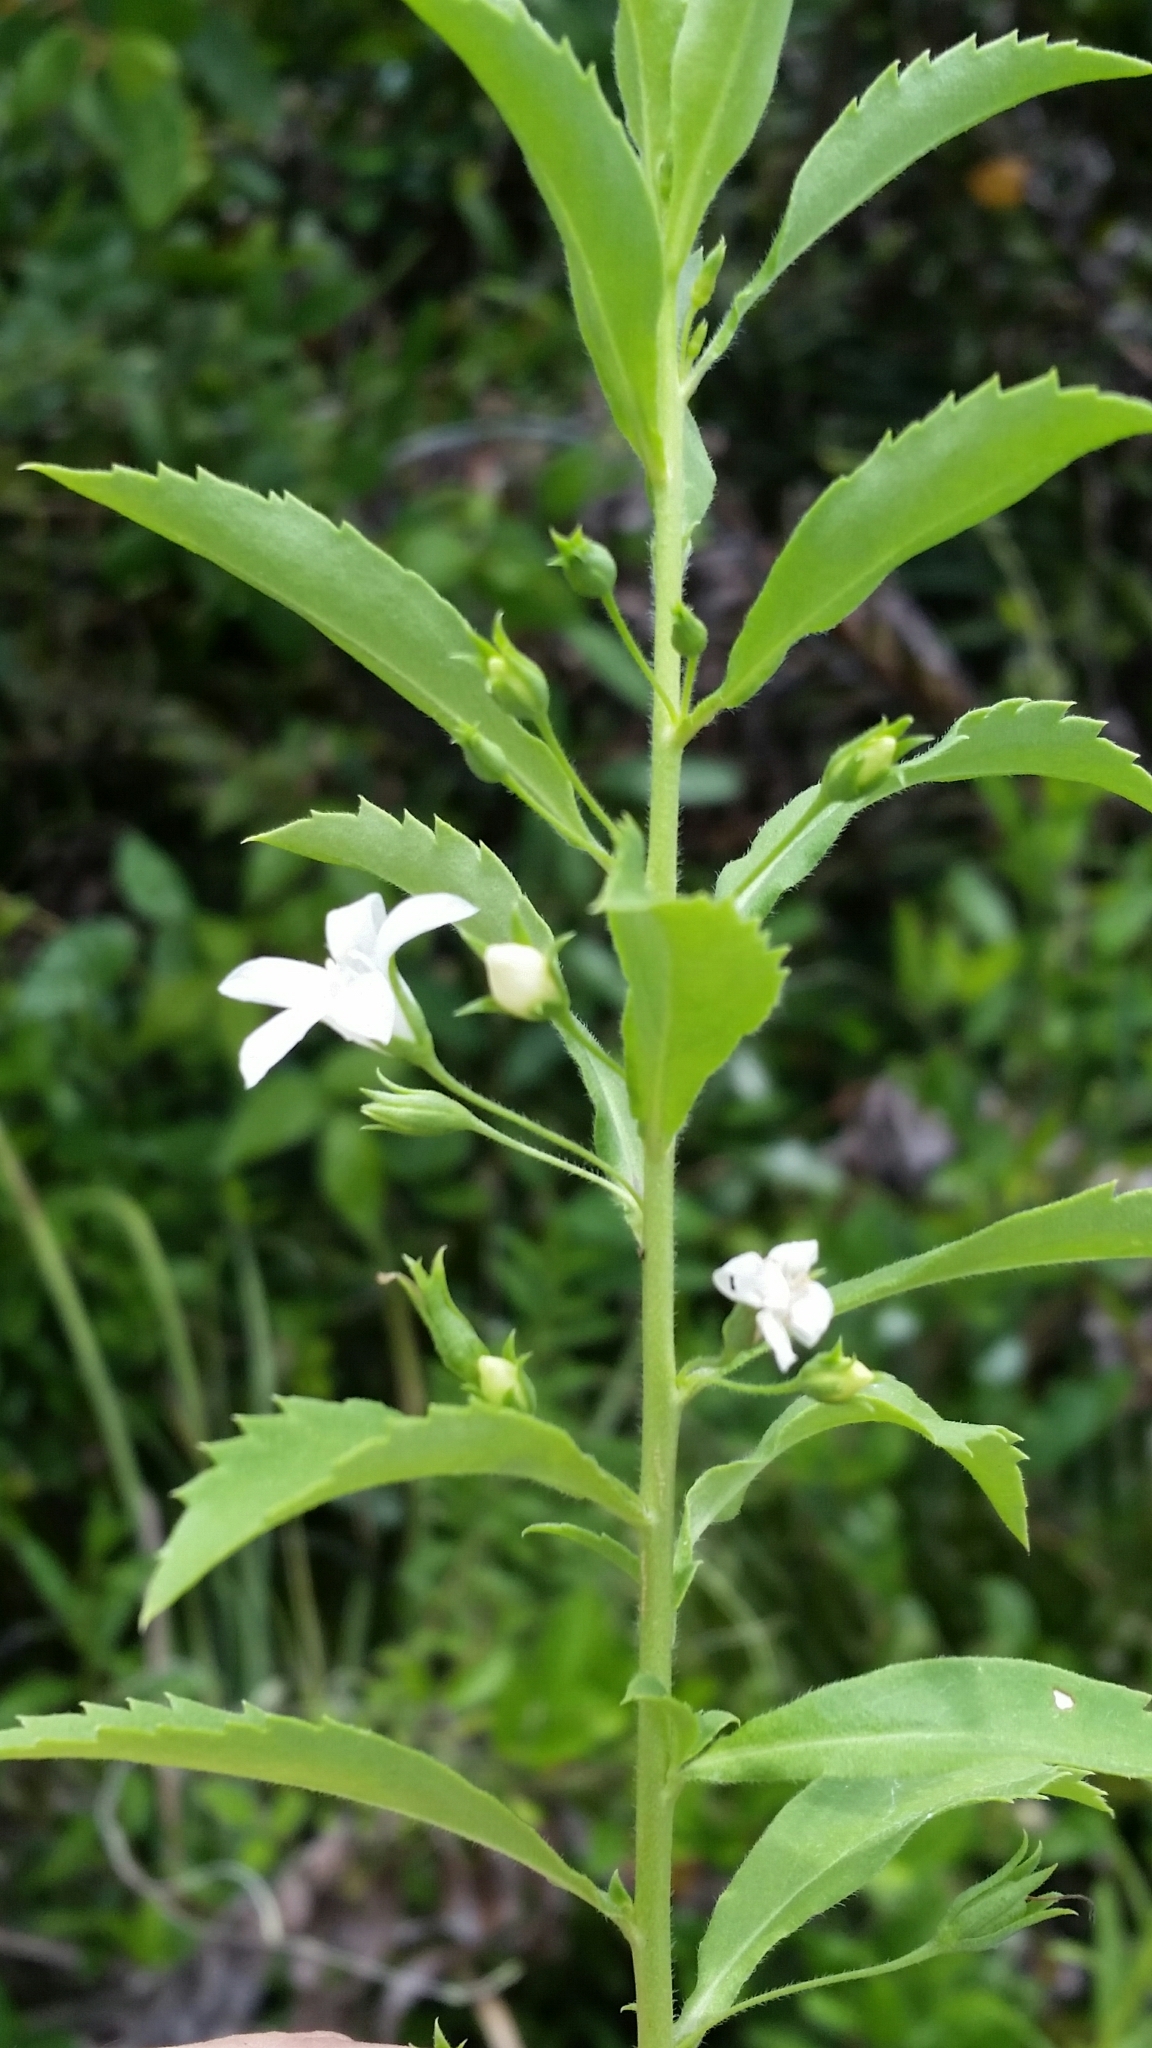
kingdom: Plantae
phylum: Tracheophyta
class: Magnoliopsida
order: Lamiales
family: Scrophulariaceae
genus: Capraria
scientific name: Capraria biflora
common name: Goatweed
